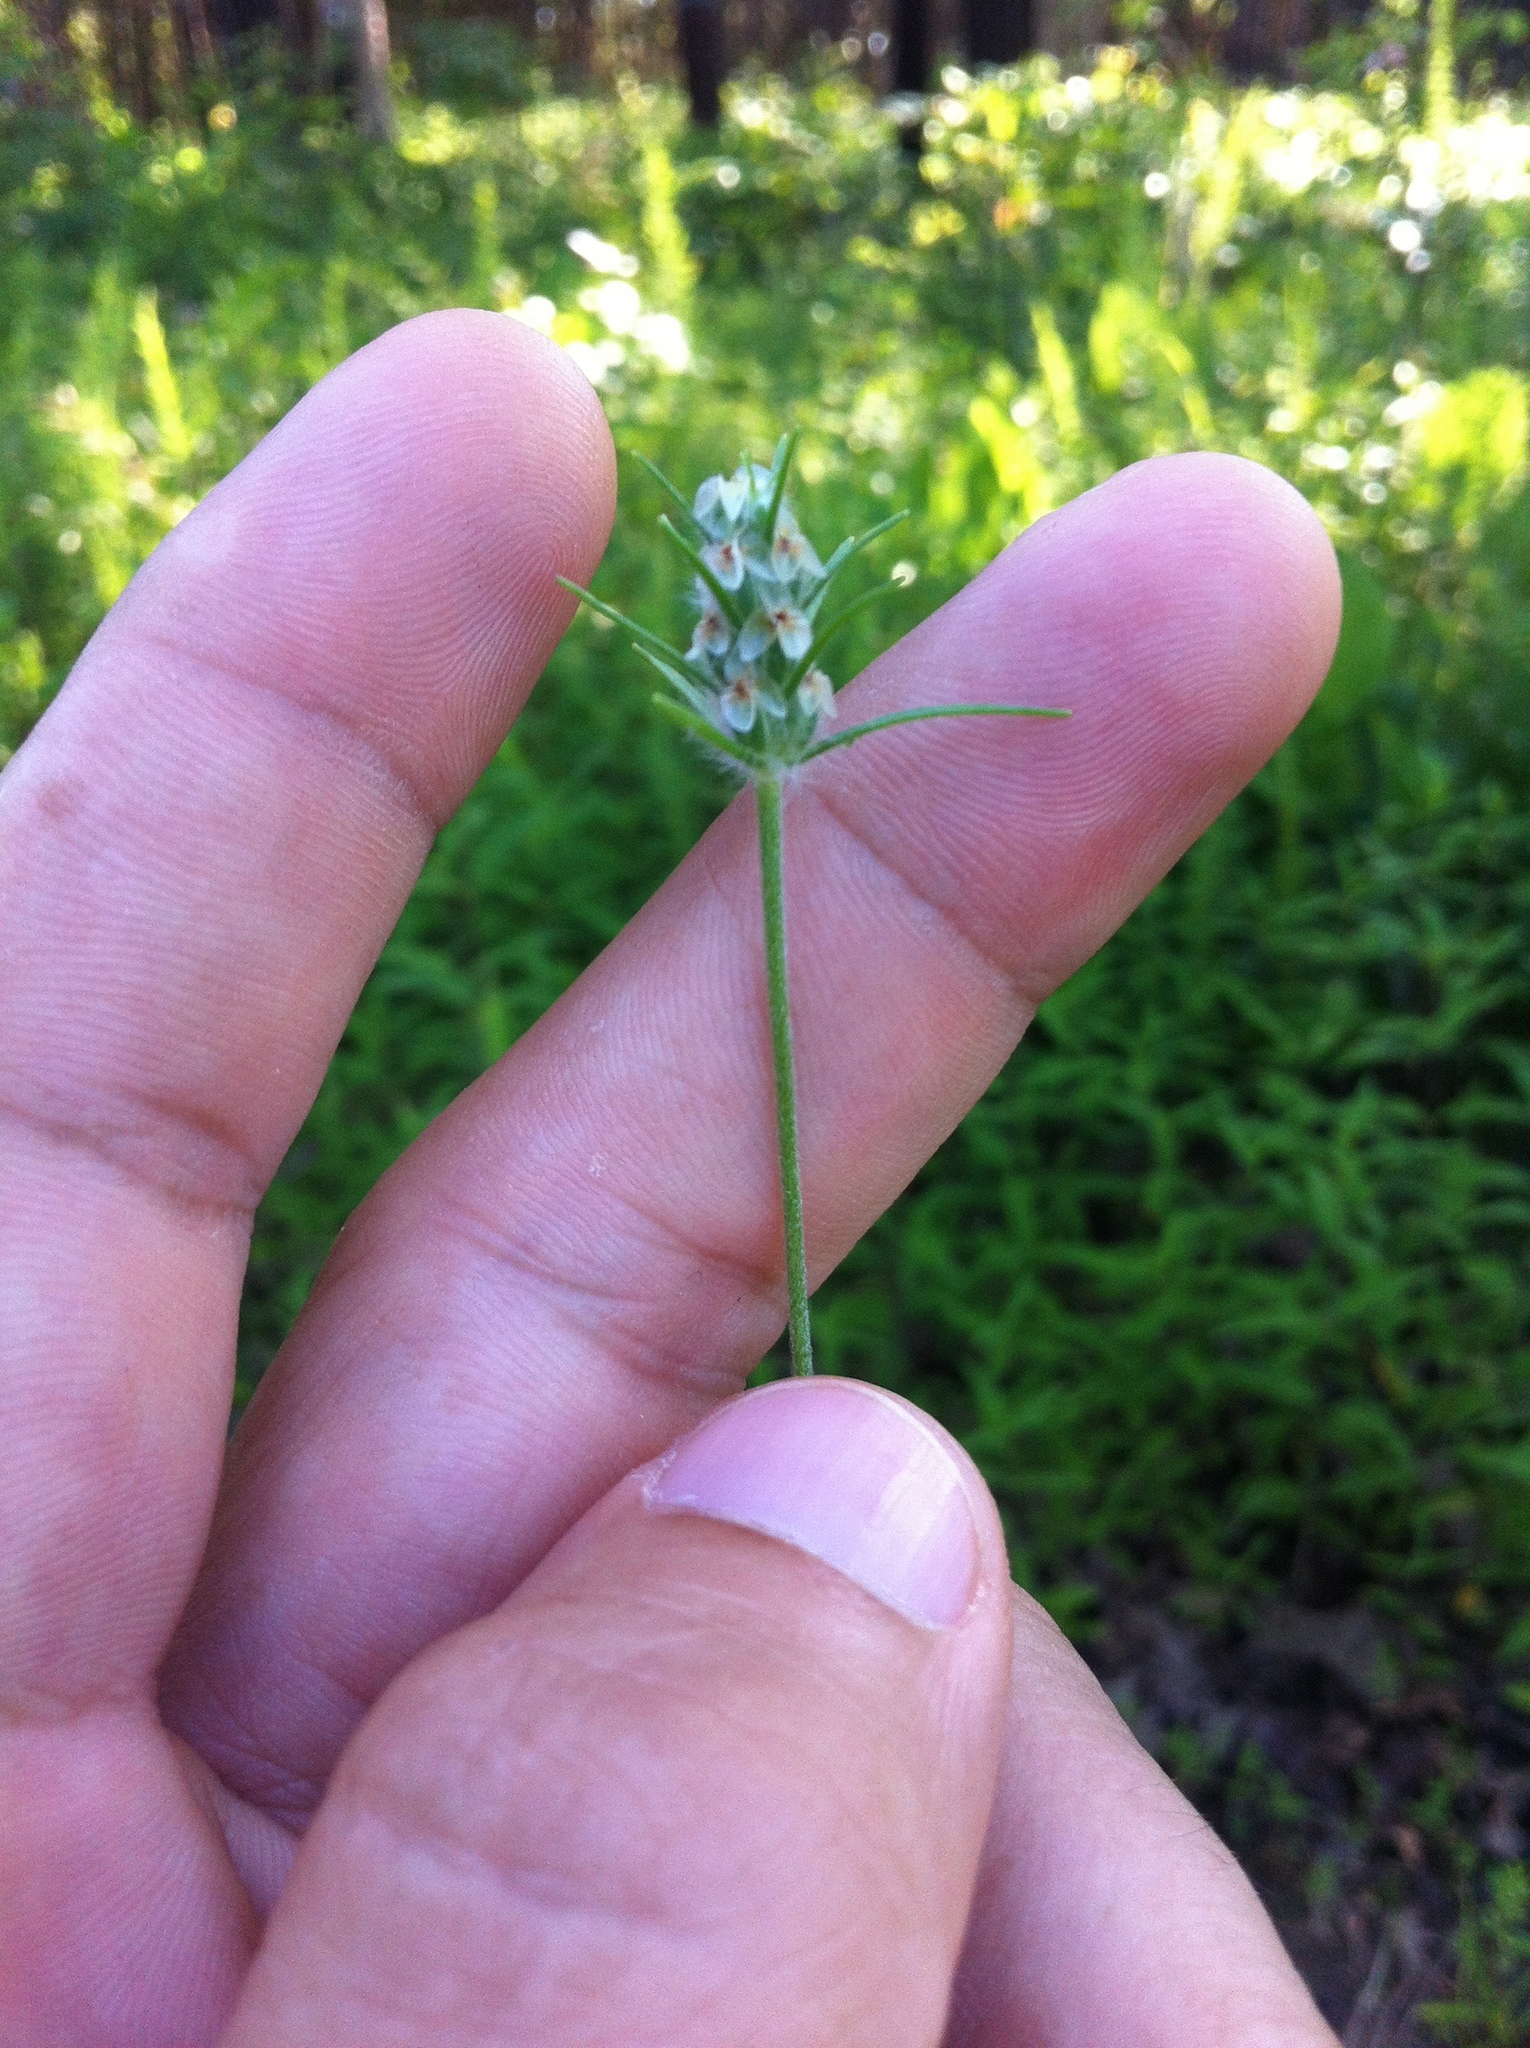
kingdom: Plantae
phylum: Tracheophyta
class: Magnoliopsida
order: Lamiales
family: Plantaginaceae
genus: Plantago
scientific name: Plantago aristata
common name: Bracted plantain
